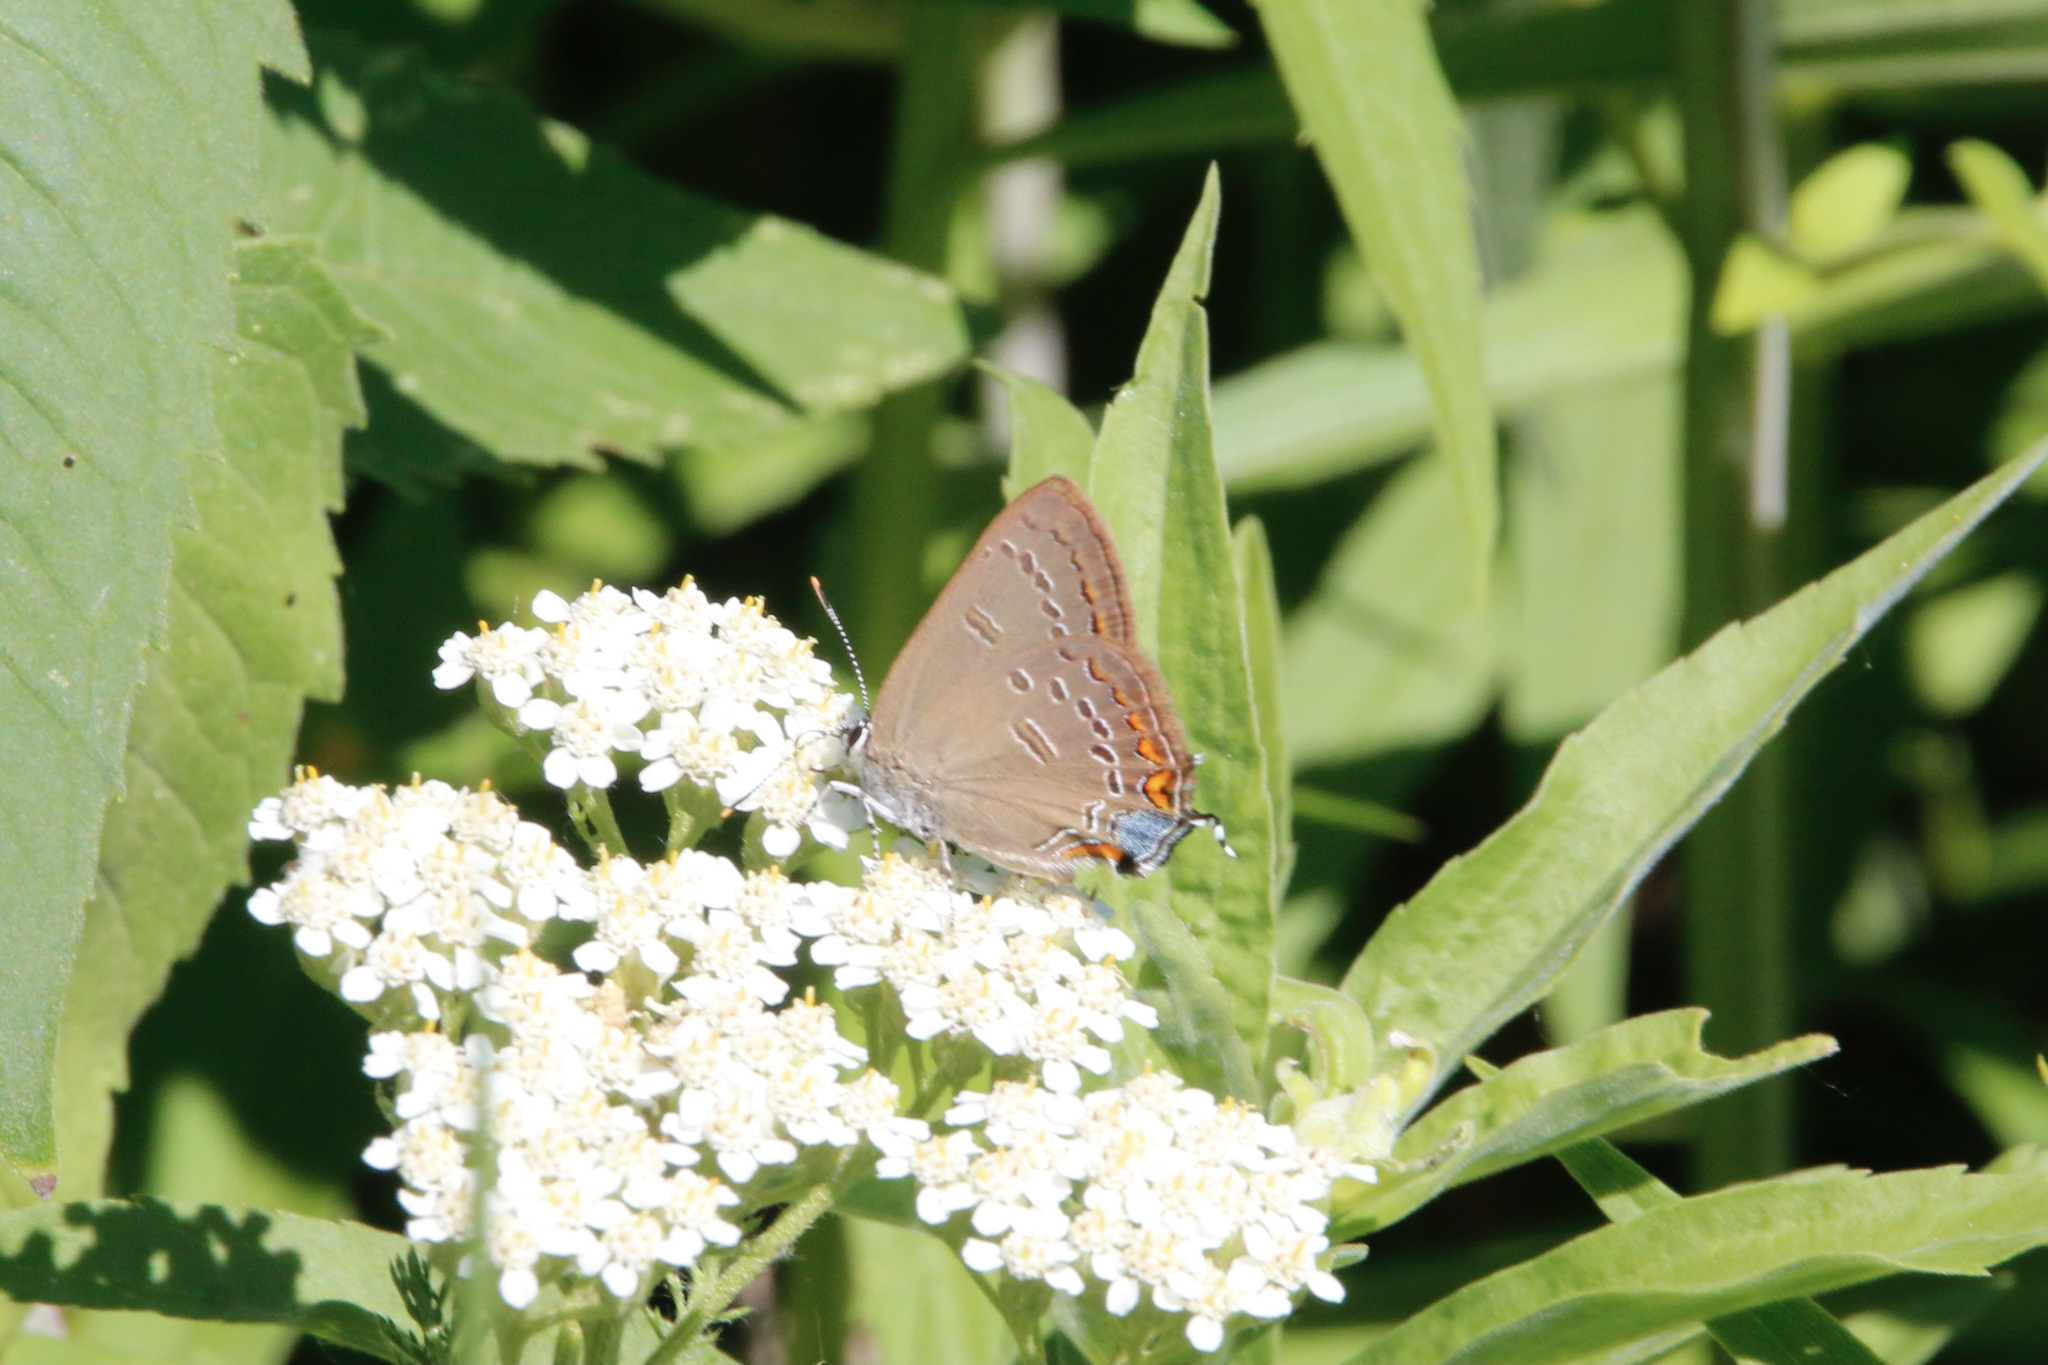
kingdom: Animalia
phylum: Arthropoda
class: Insecta
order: Lepidoptera
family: Lycaenidae
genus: Satyrium
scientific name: Satyrium edwardsii
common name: Edwards' hairstreak
